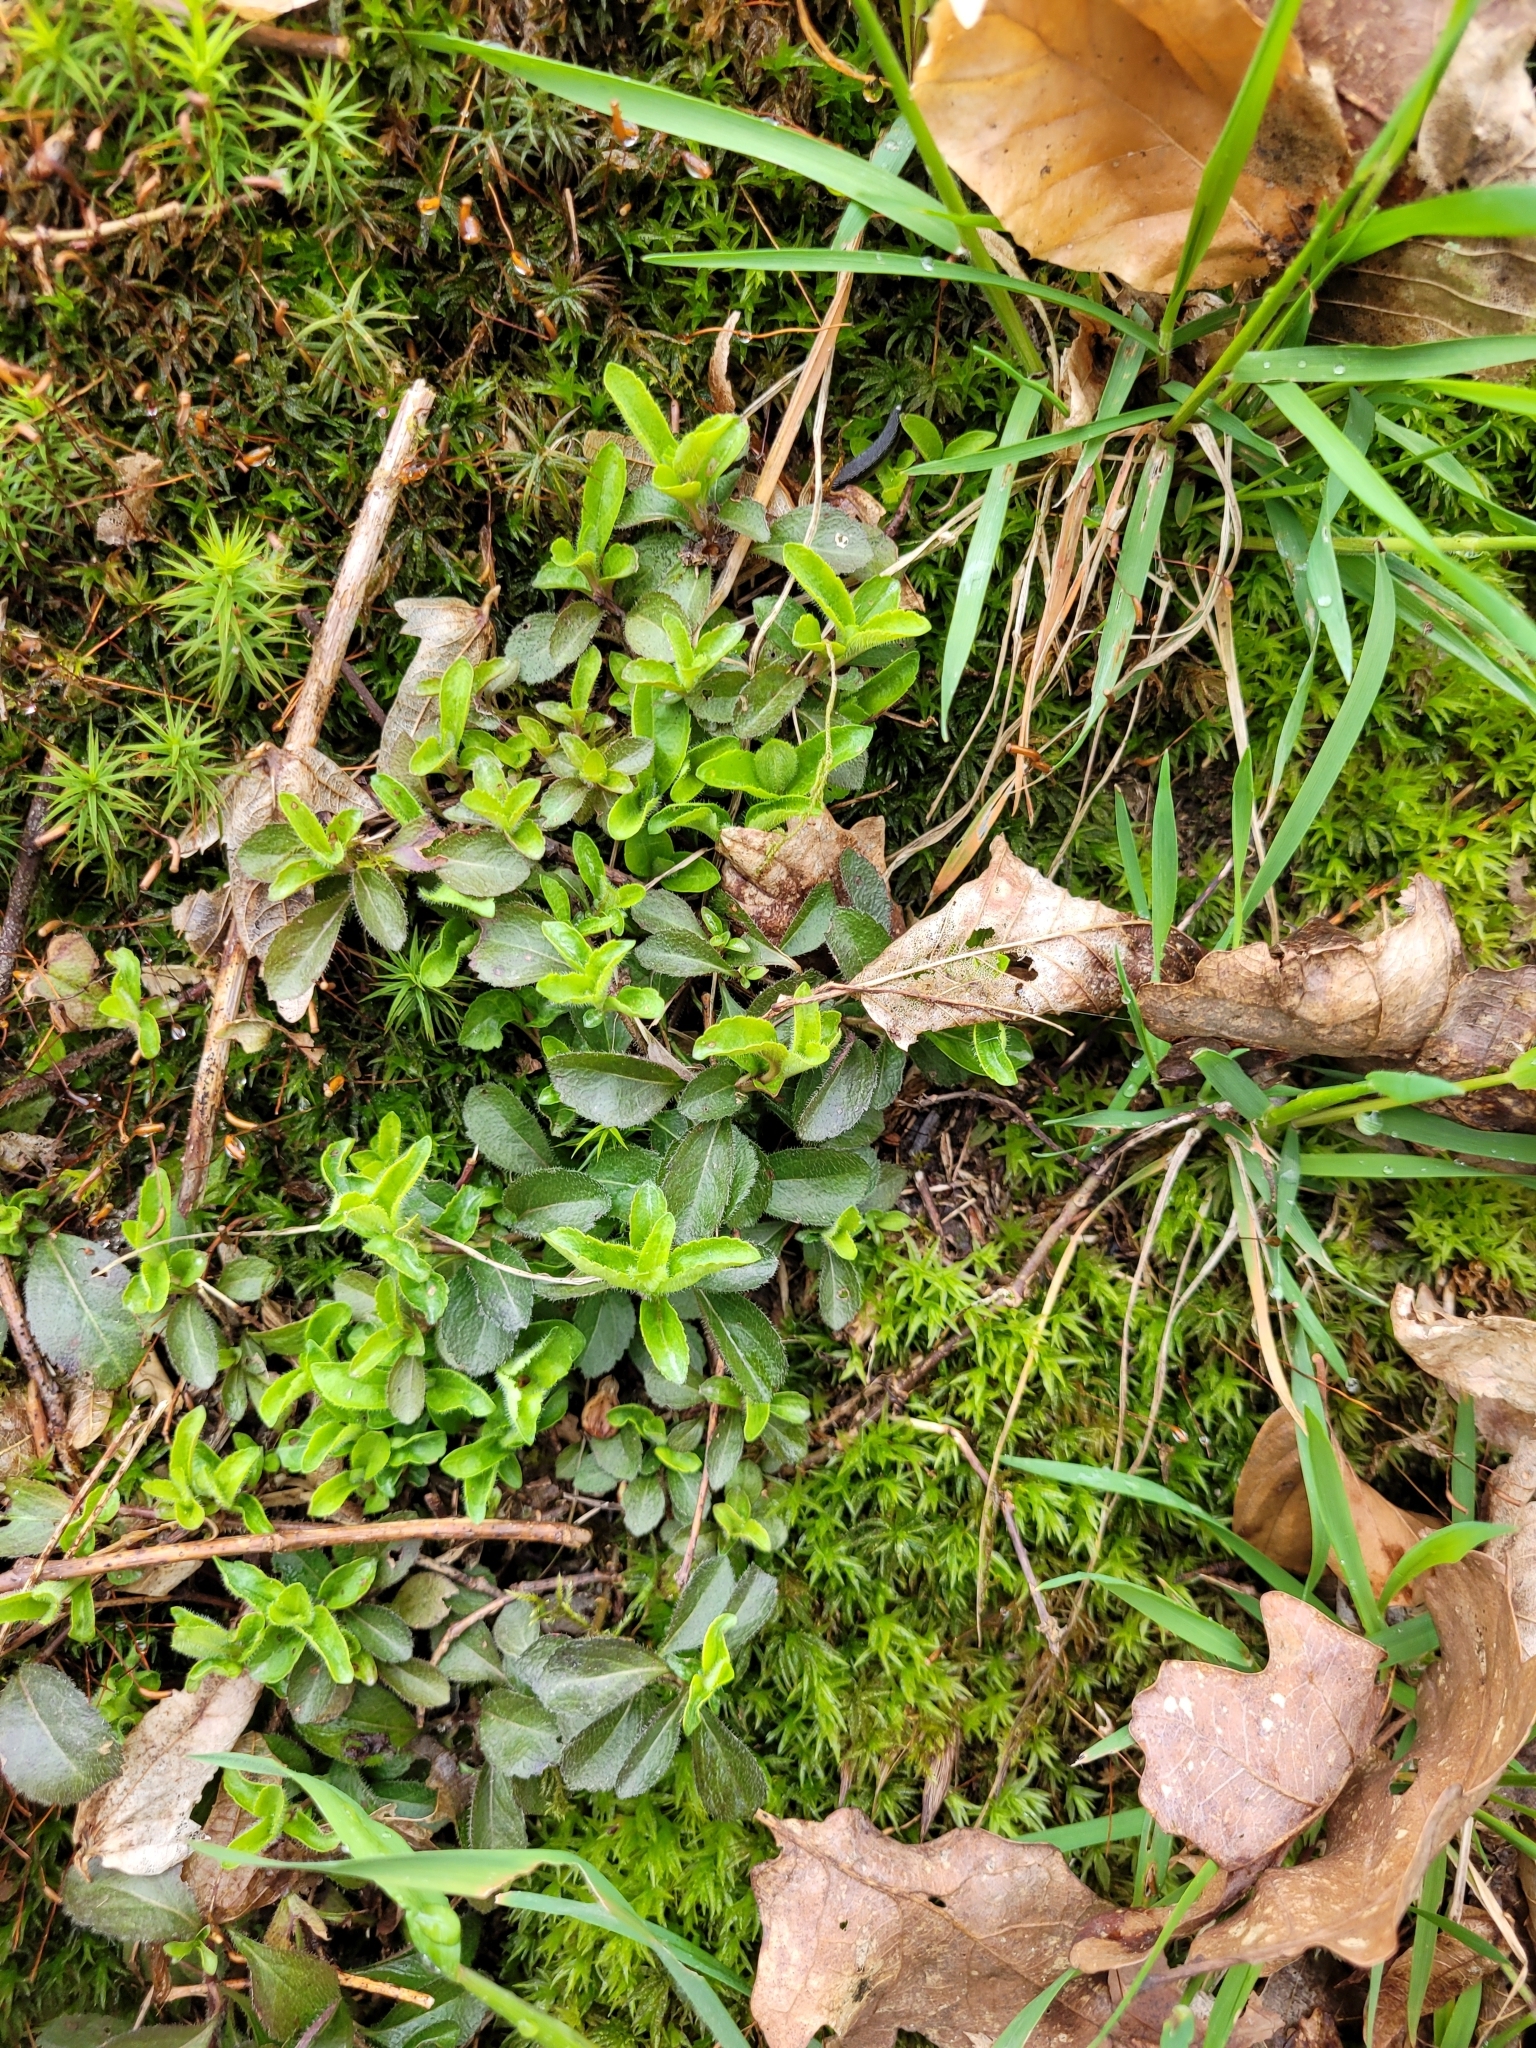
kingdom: Plantae
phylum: Tracheophyta
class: Magnoliopsida
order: Lamiales
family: Plantaginaceae
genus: Veronica
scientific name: Veronica officinalis
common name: Common speedwell
